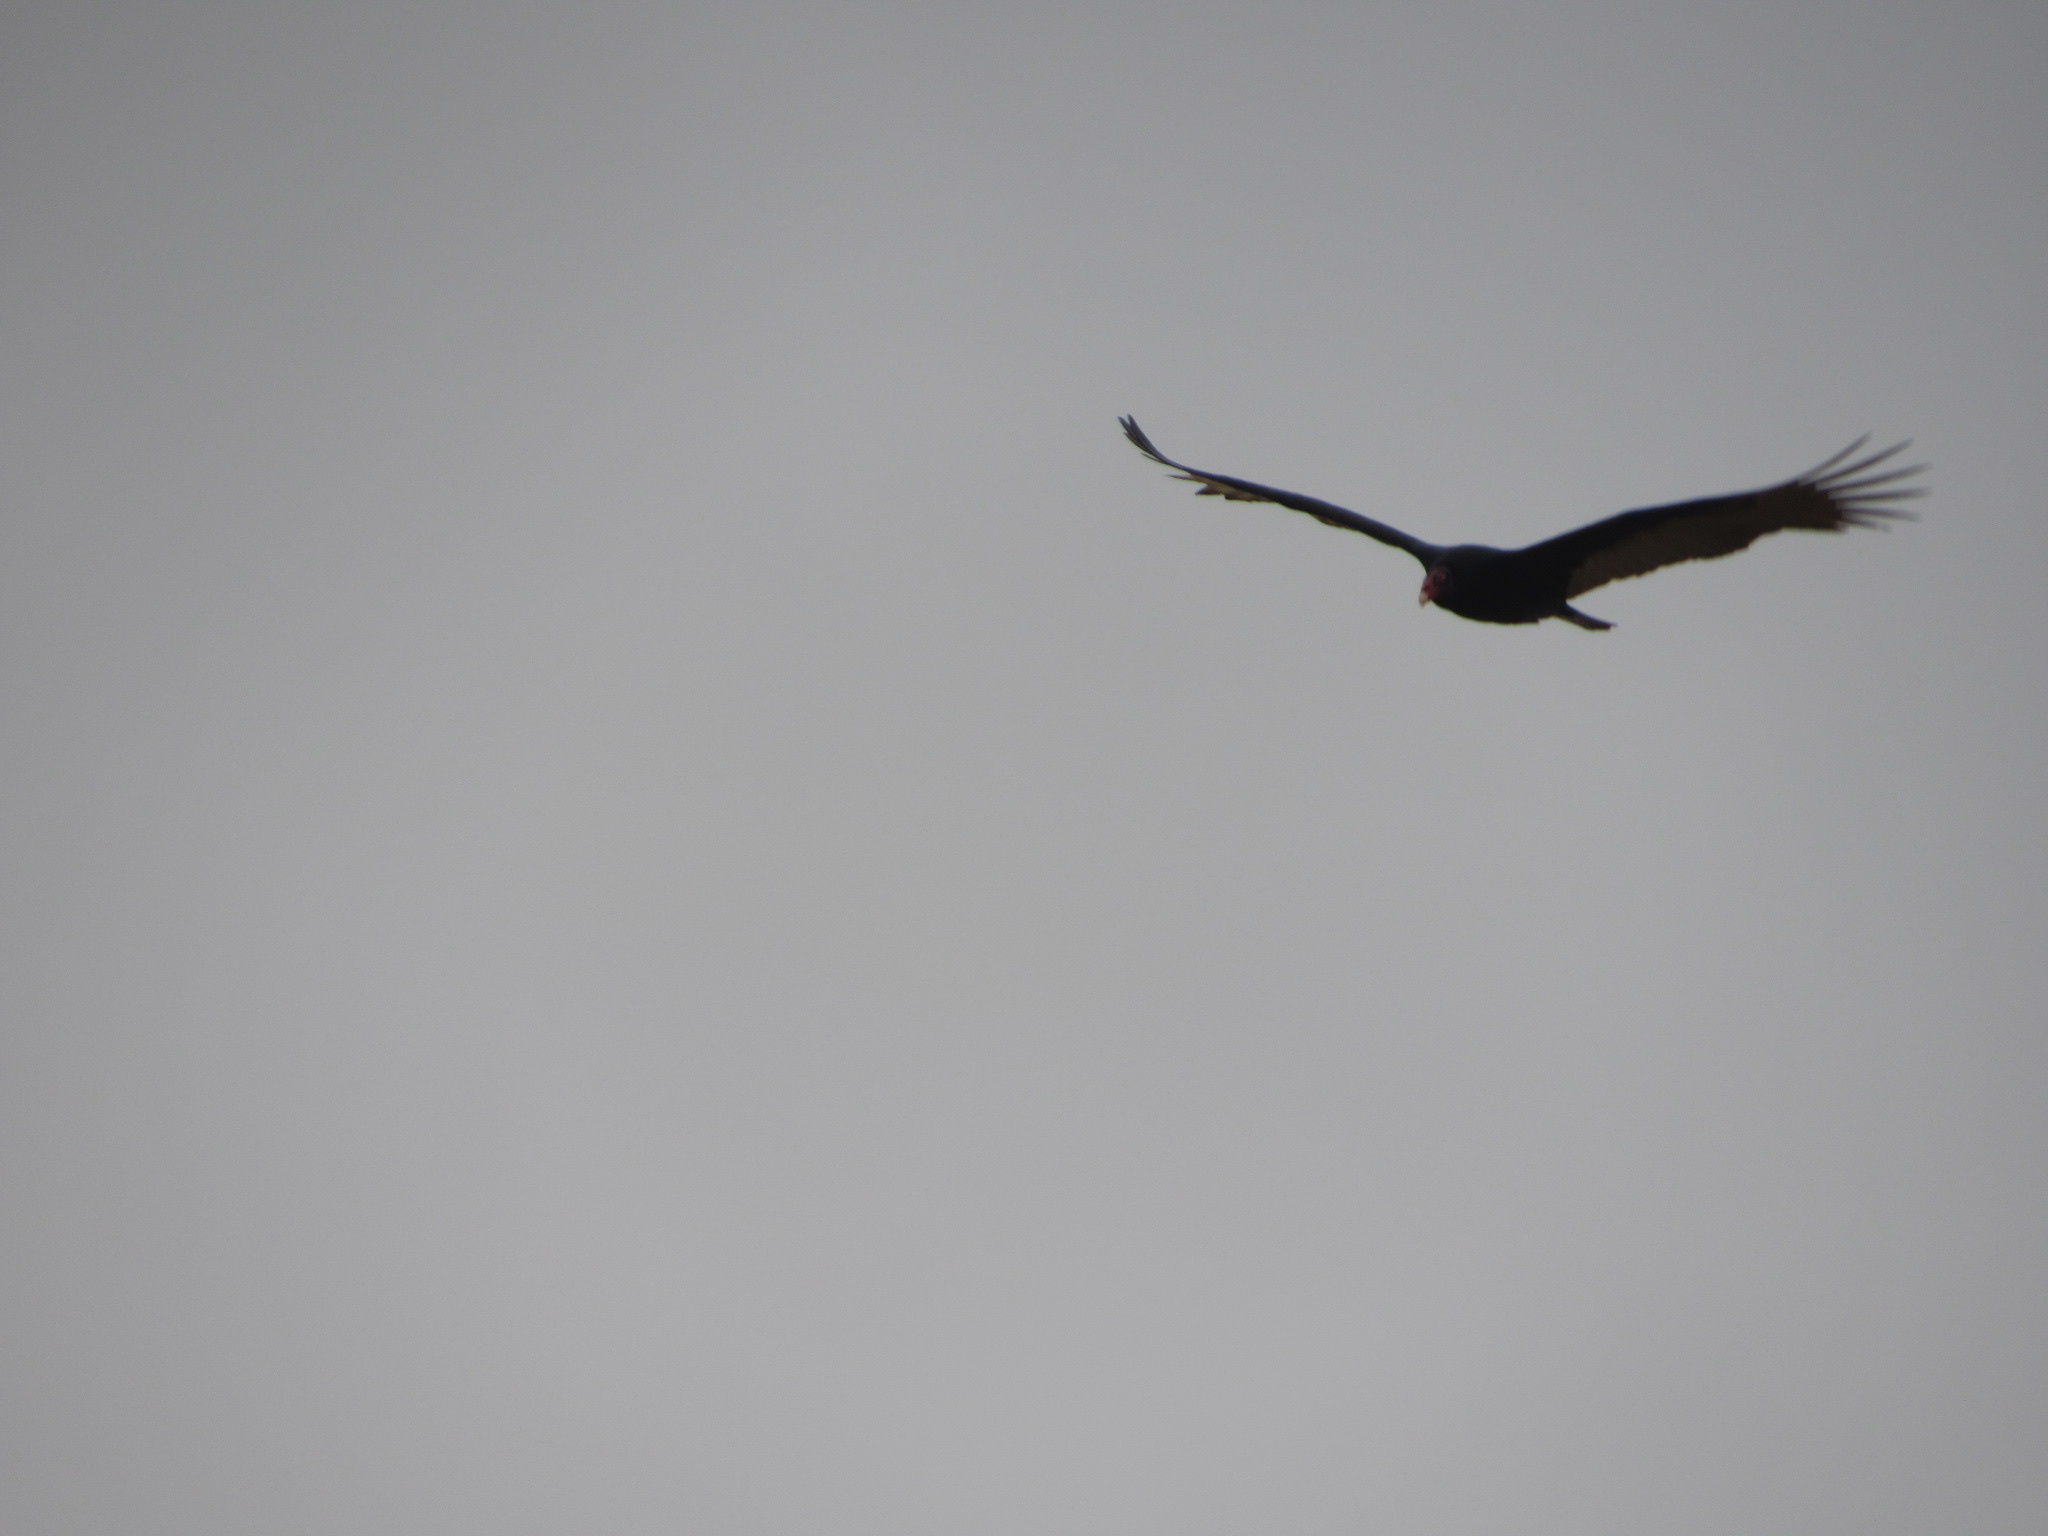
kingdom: Animalia
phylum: Chordata
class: Aves
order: Accipitriformes
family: Cathartidae
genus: Cathartes
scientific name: Cathartes aura
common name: Turkey vulture
